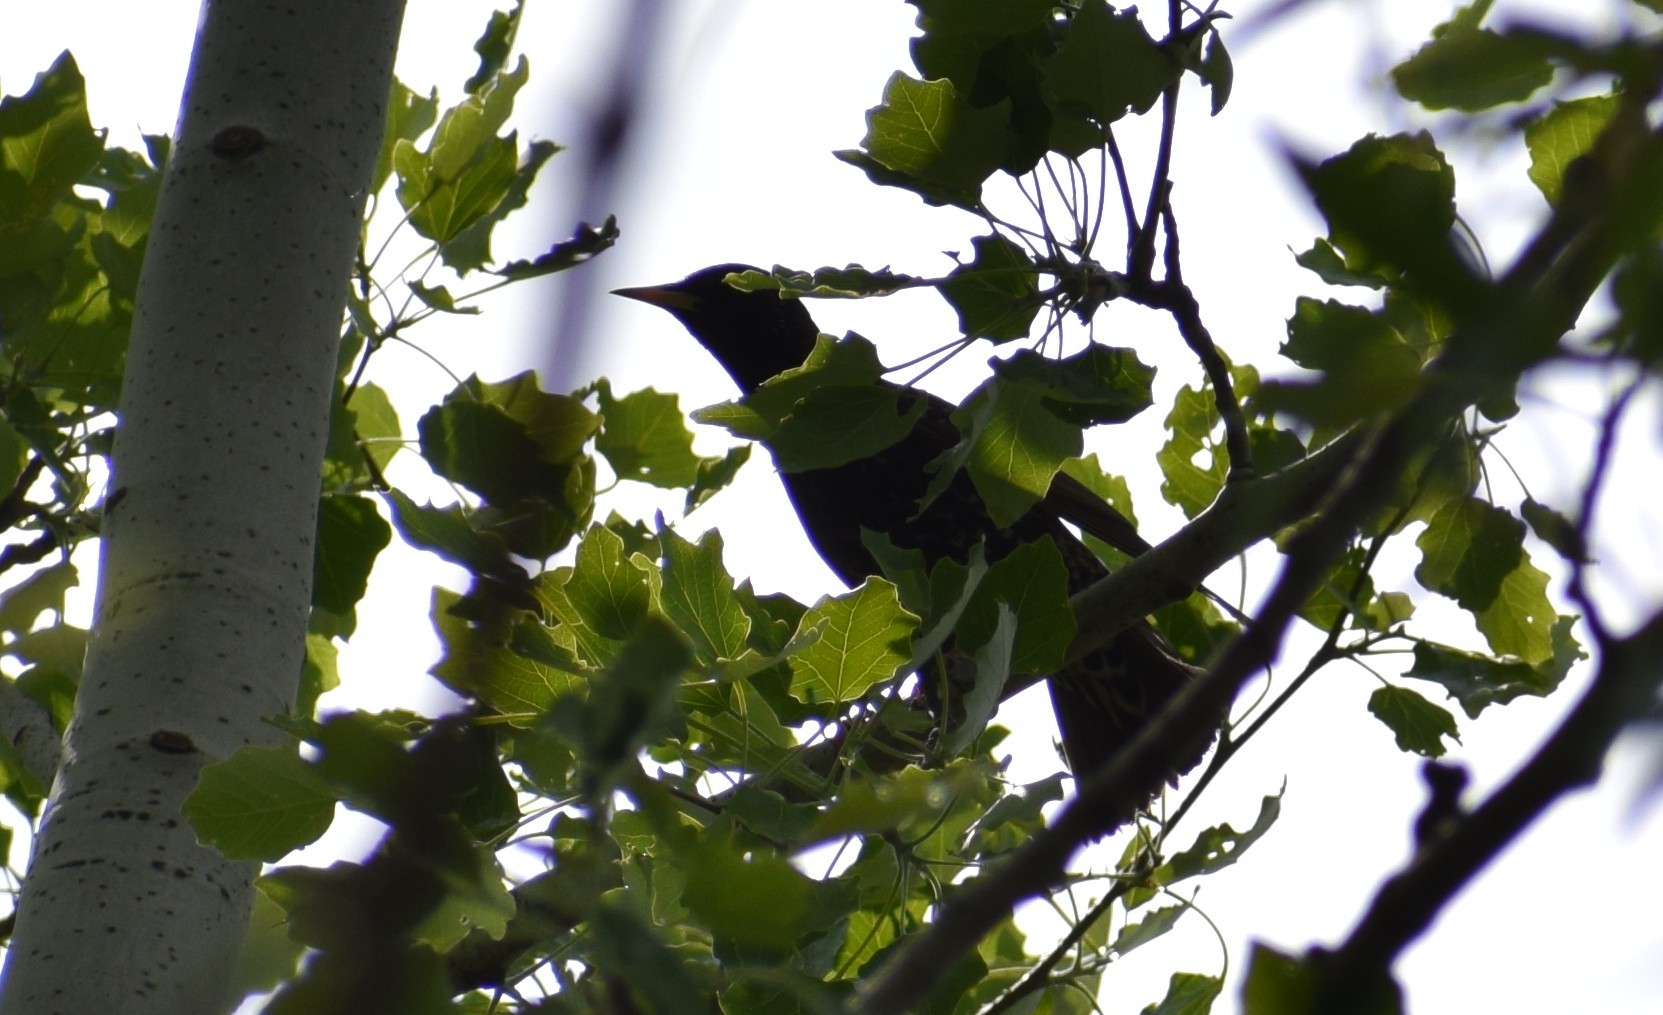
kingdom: Animalia
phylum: Chordata
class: Aves
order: Passeriformes
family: Sturnidae
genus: Sturnus
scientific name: Sturnus vulgaris
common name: Common starling
